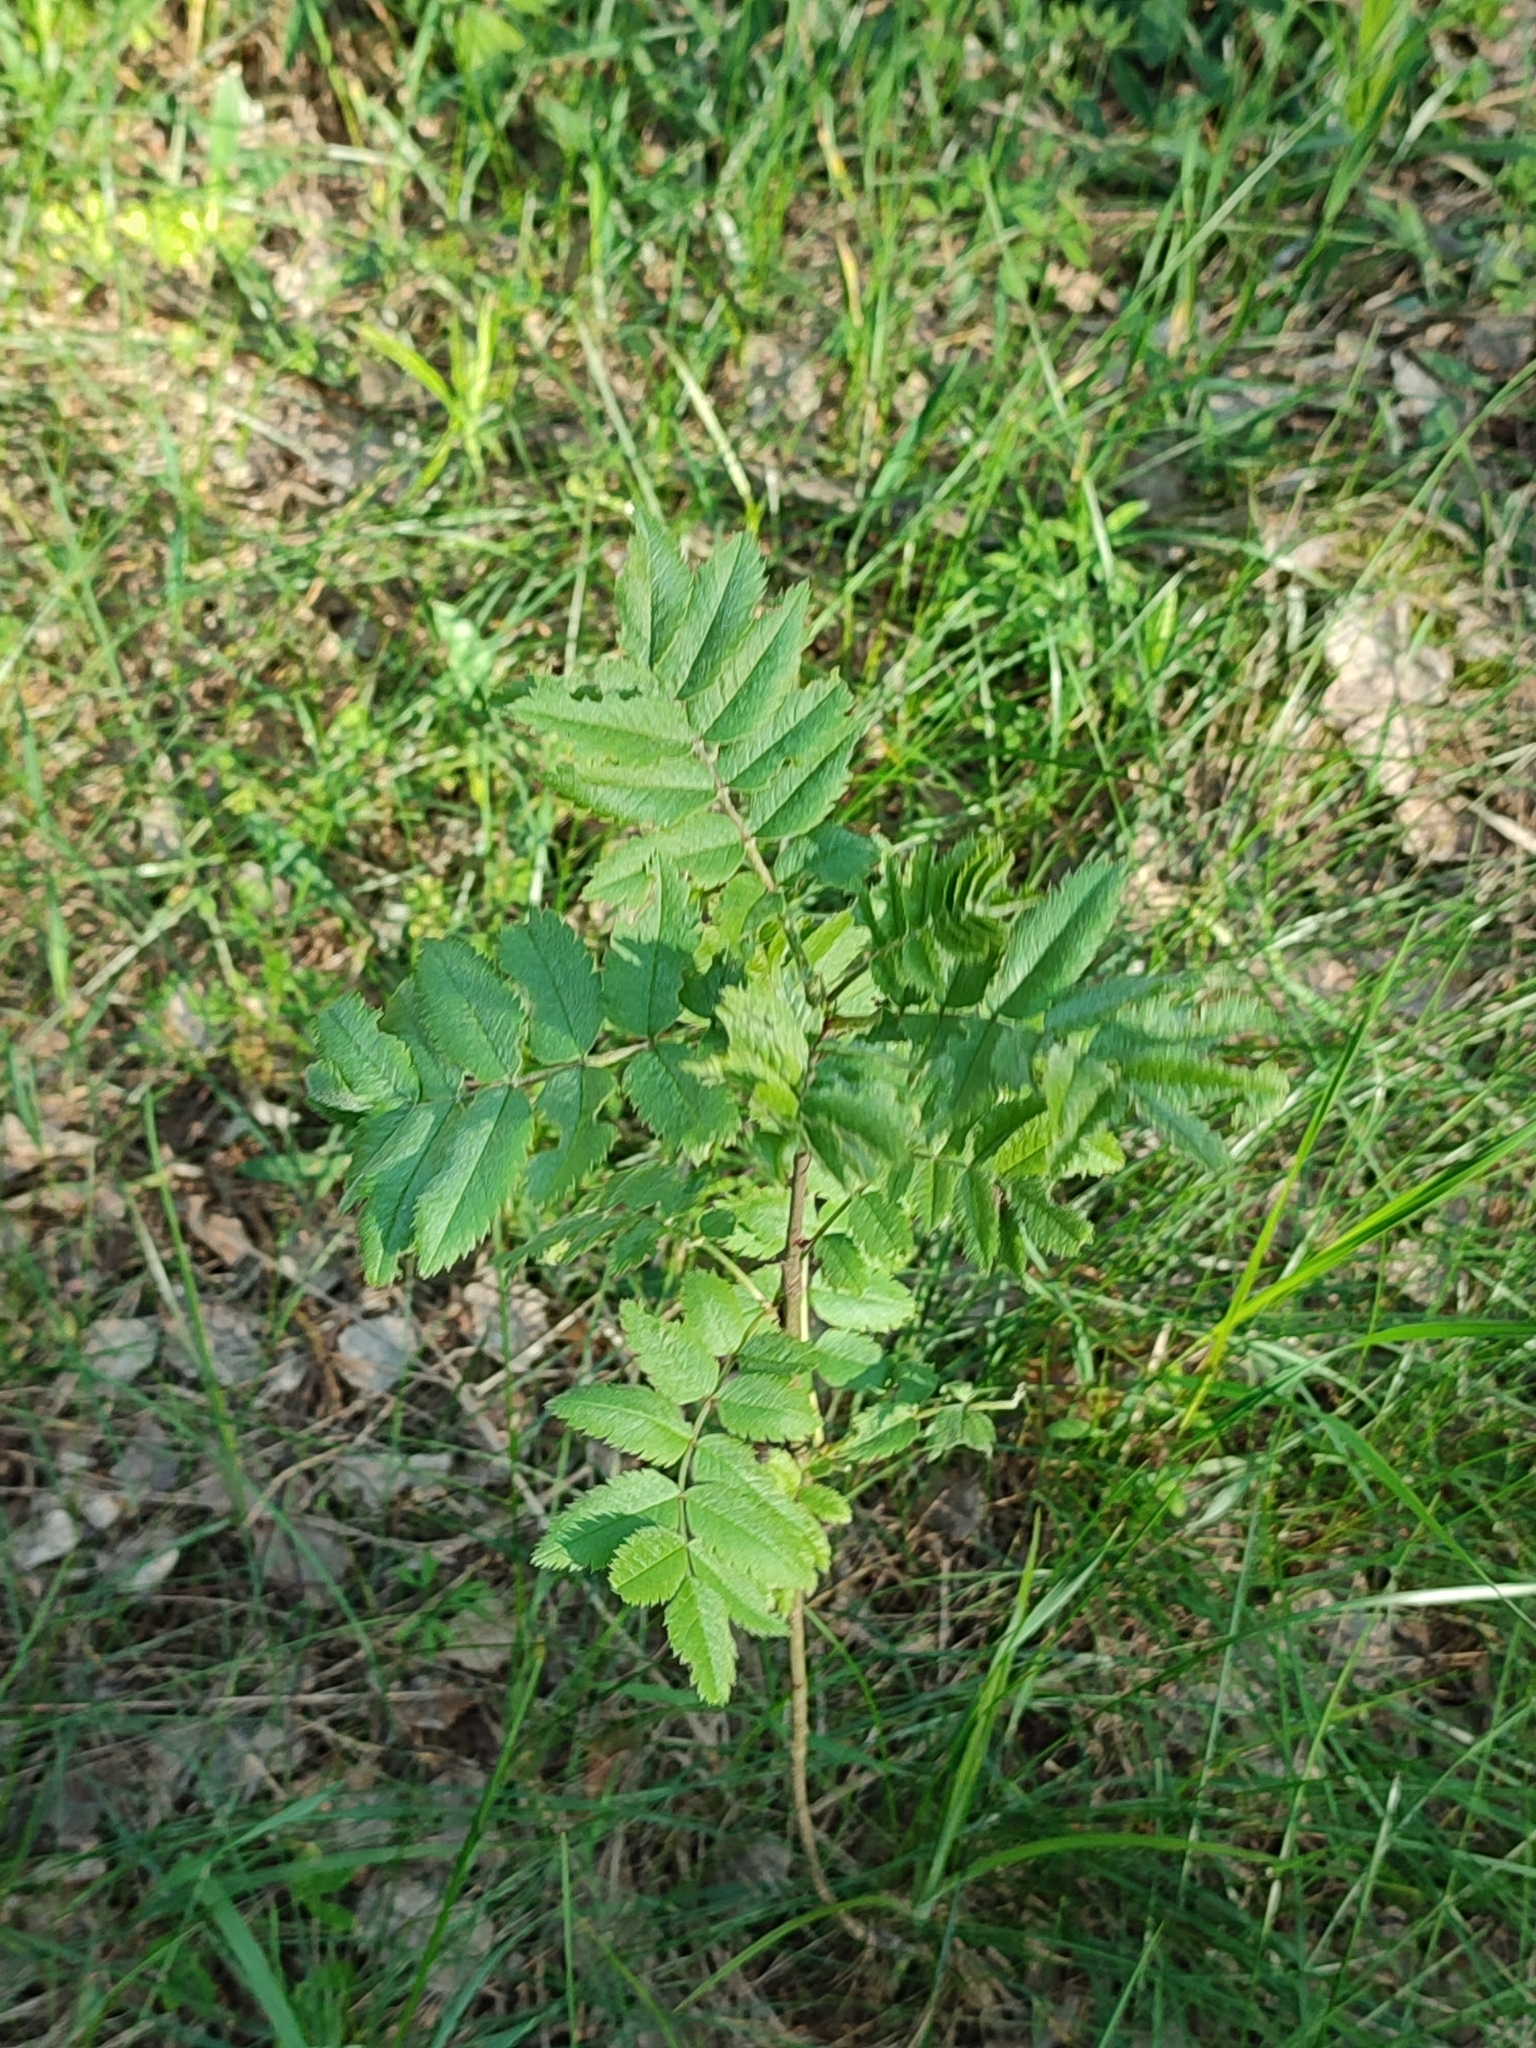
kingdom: Plantae
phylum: Tracheophyta
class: Magnoliopsida
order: Rosales
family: Rosaceae
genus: Sorbus
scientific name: Sorbus aucuparia
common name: Rowan
